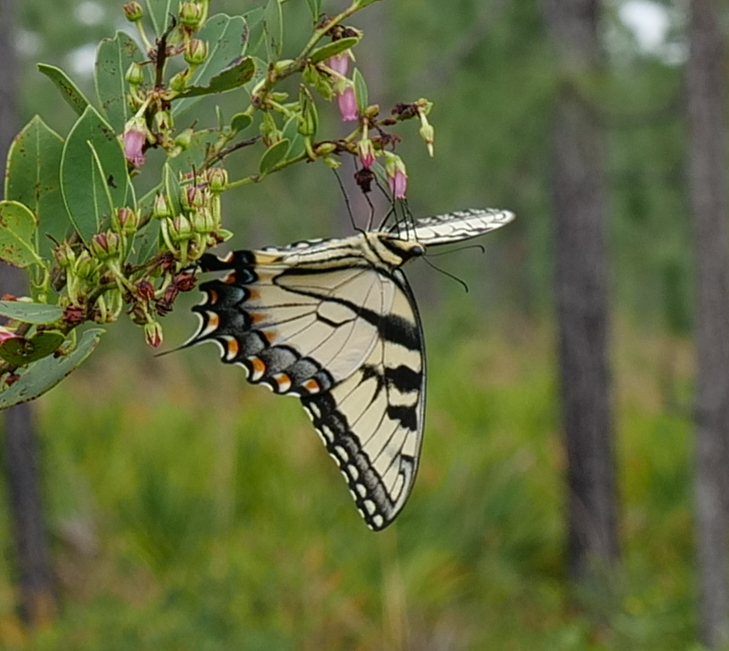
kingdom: Animalia
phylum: Arthropoda
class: Insecta
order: Lepidoptera
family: Papilionidae
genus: Papilio
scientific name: Papilio glaucus
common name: Tiger swallowtail
